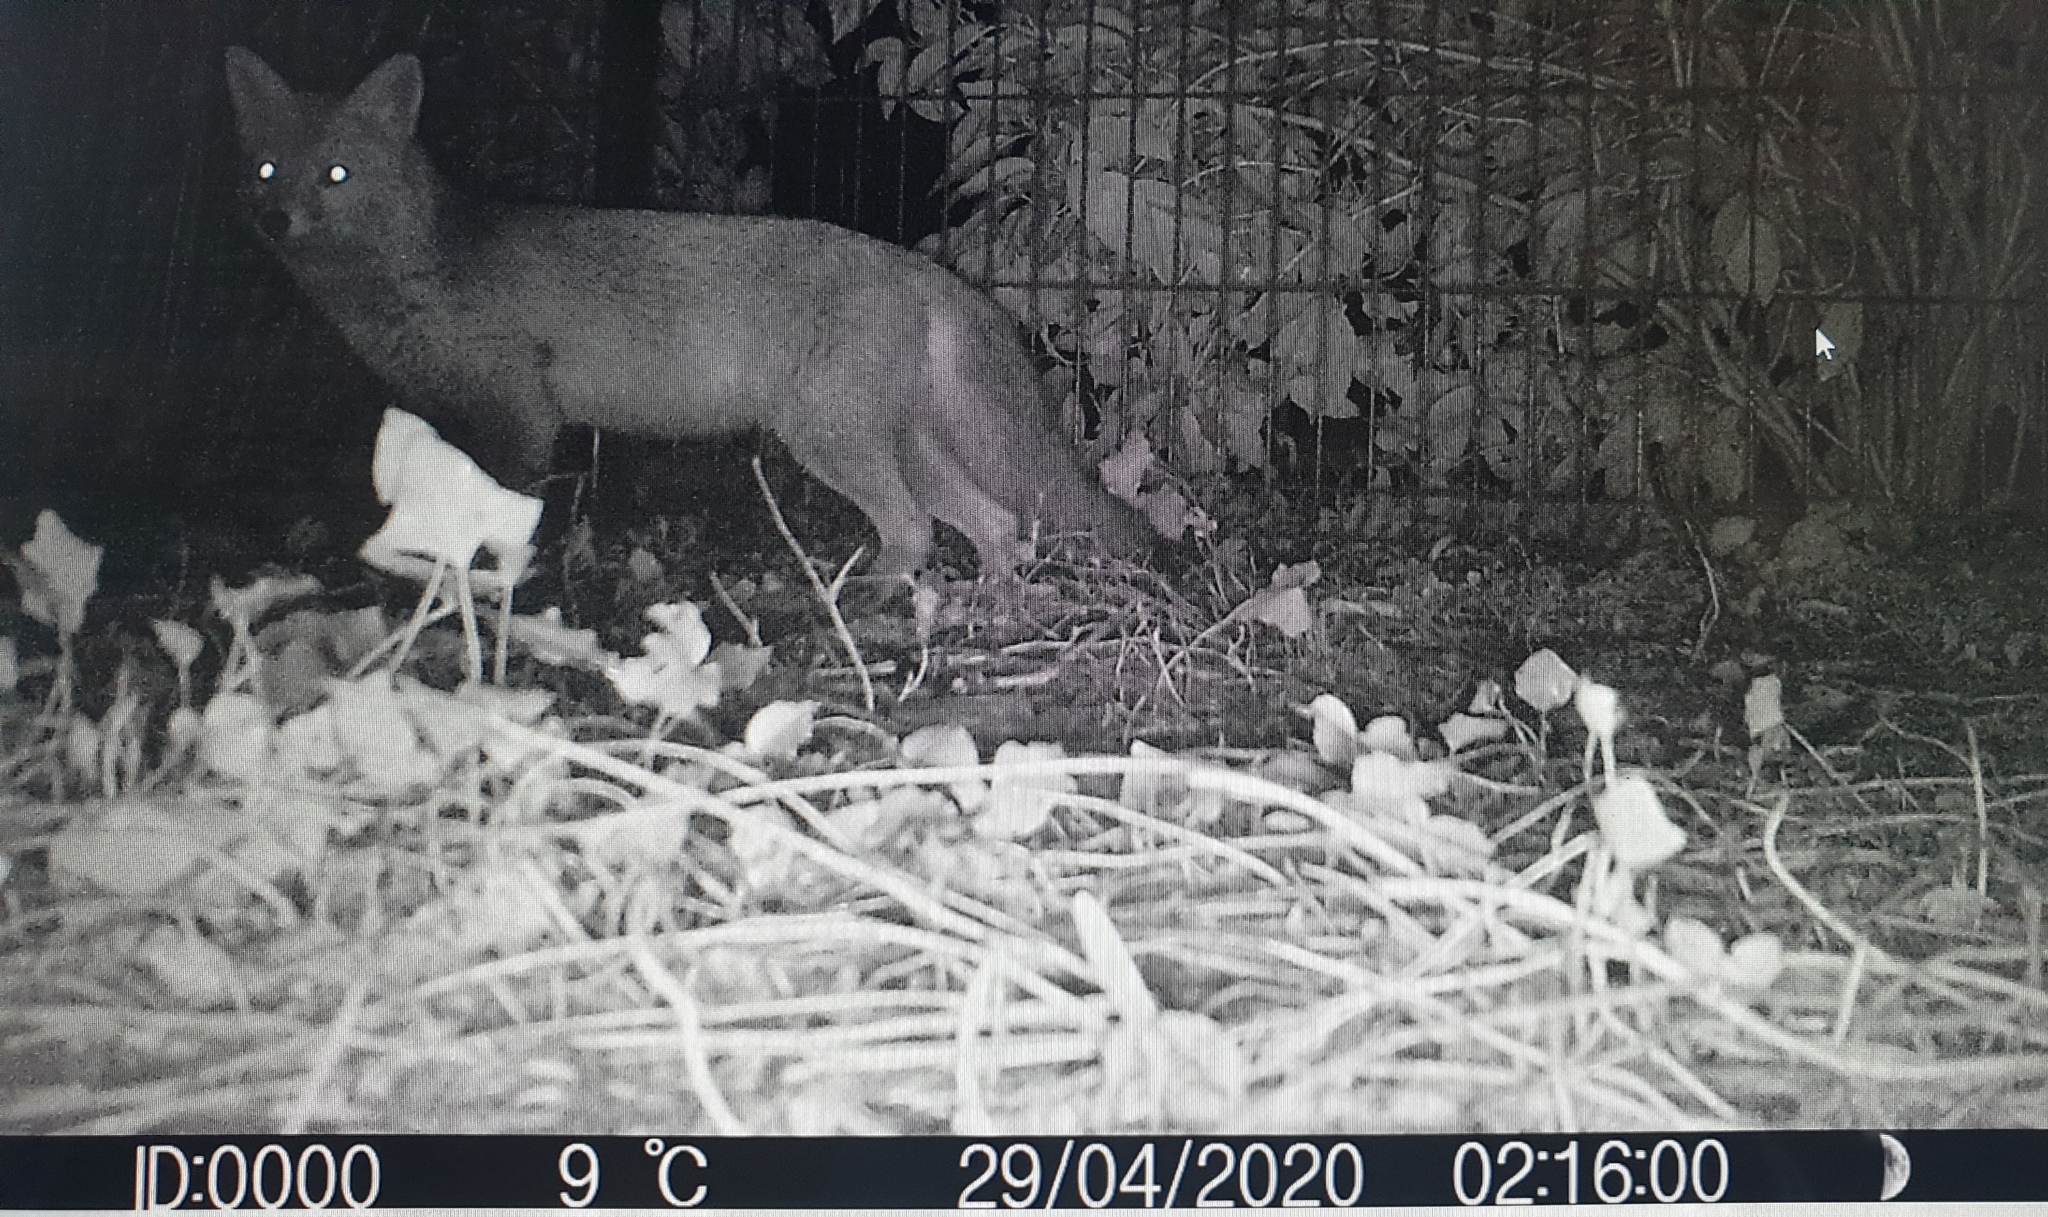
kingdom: Animalia
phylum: Chordata
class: Mammalia
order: Carnivora
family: Canidae
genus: Vulpes
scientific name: Vulpes vulpes
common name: Red fox
